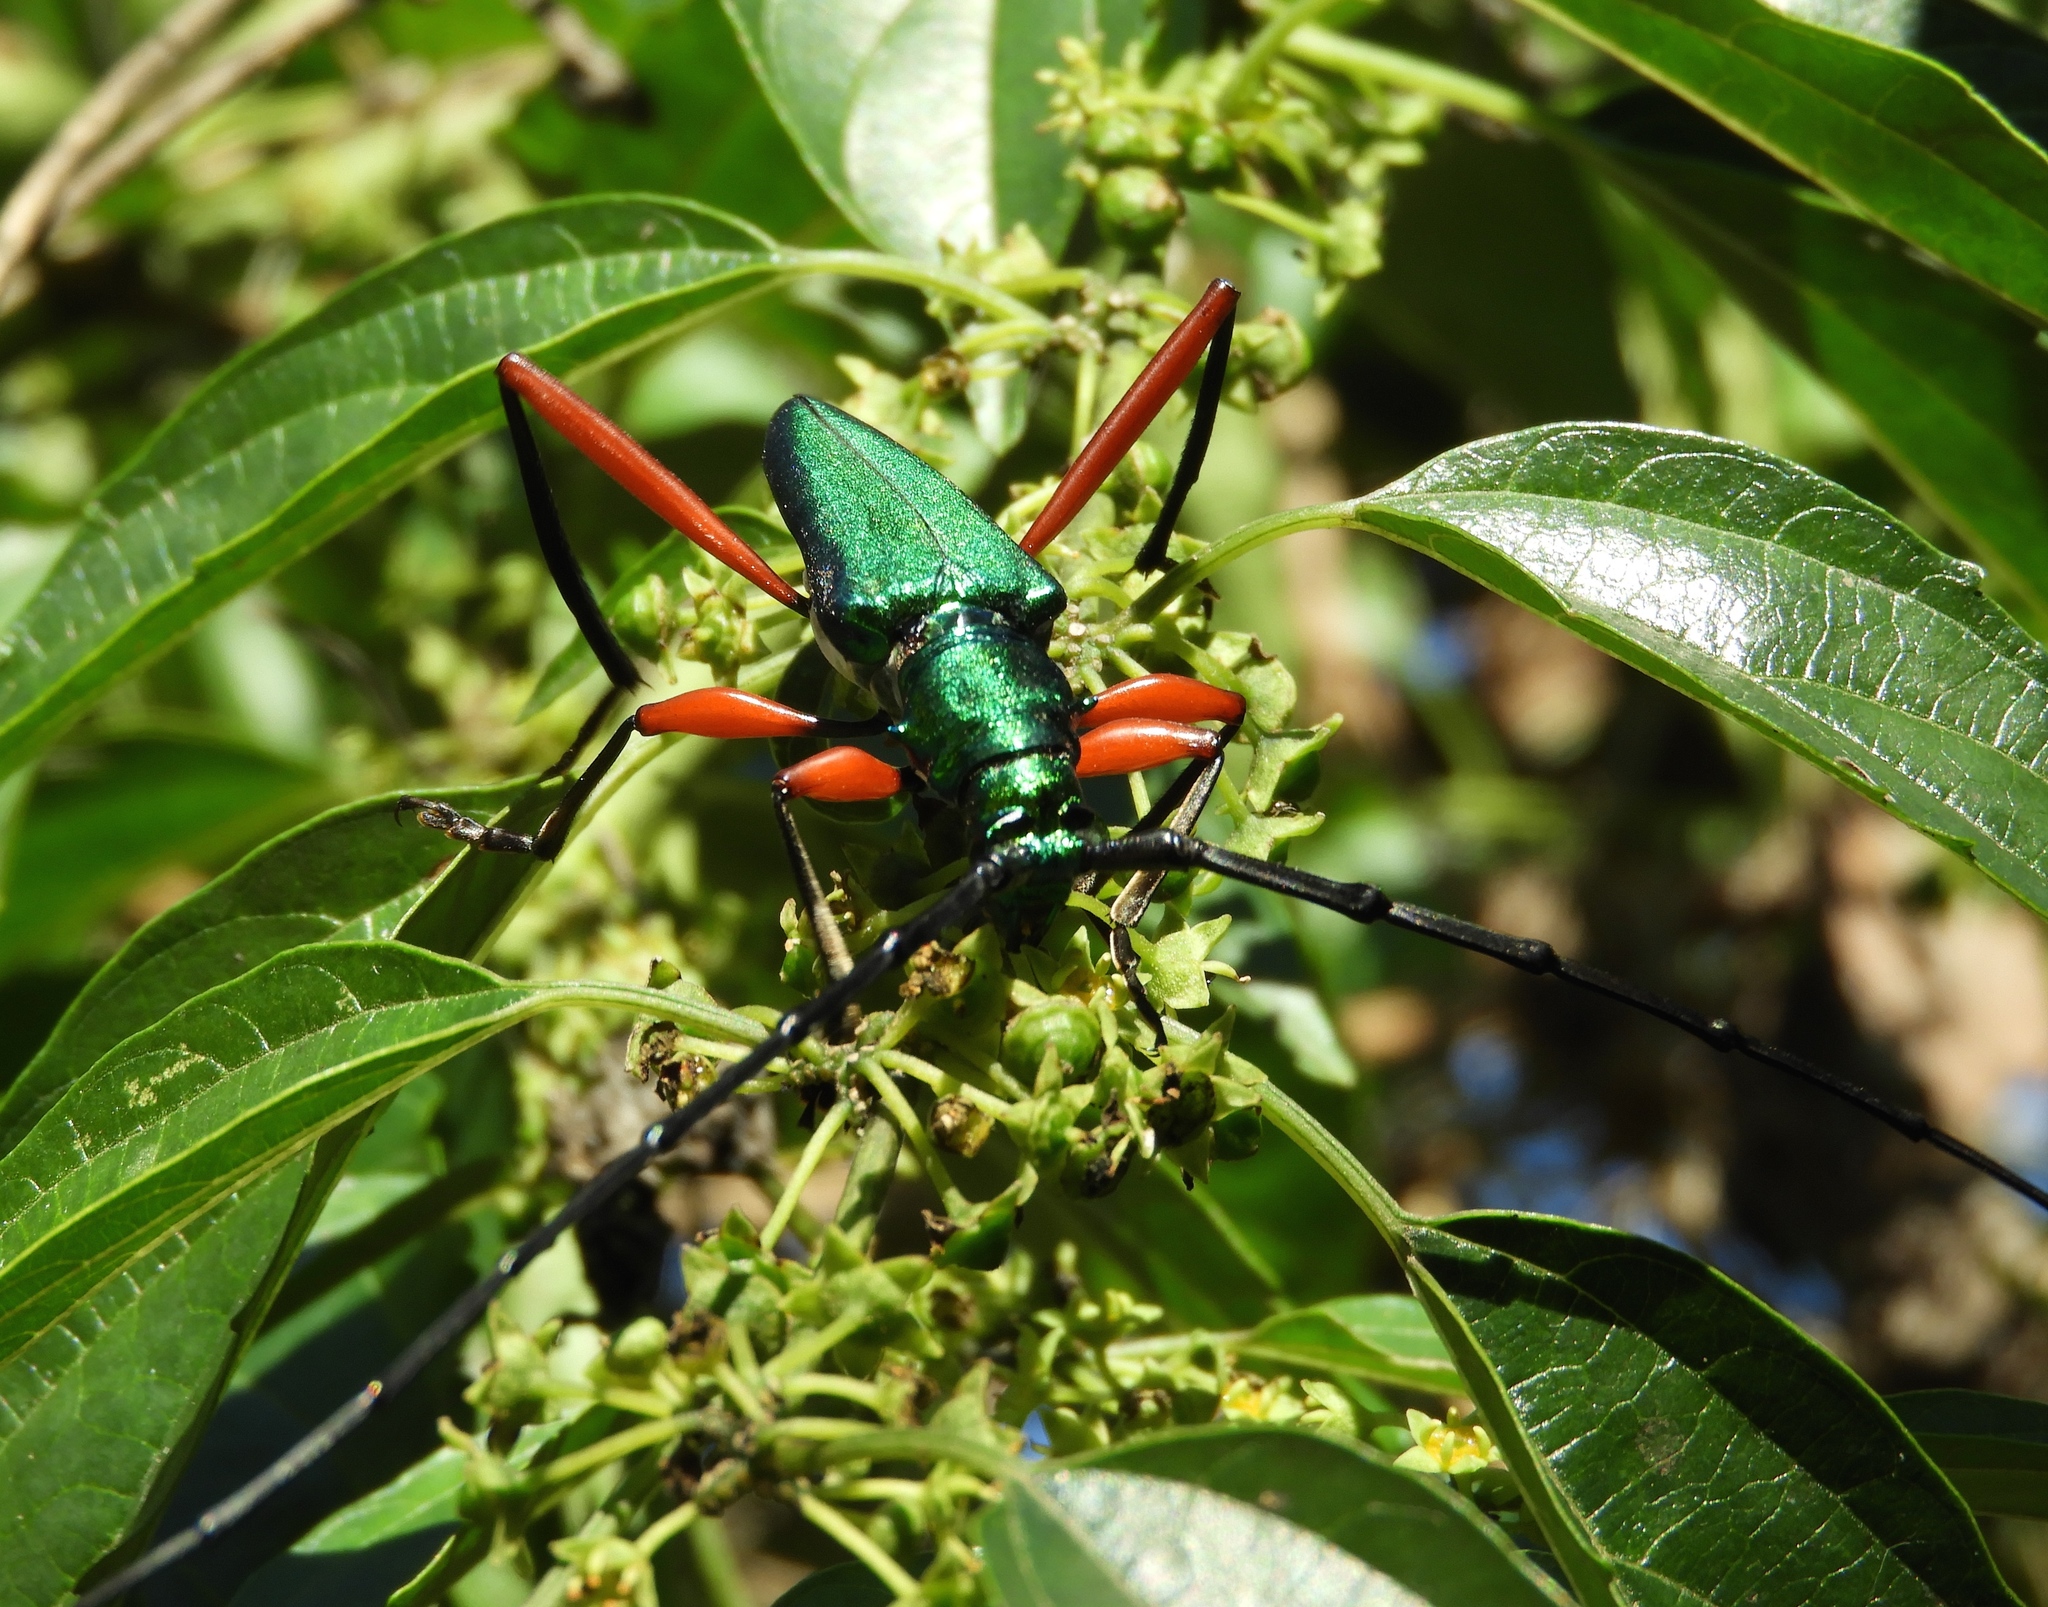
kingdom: Animalia
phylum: Arthropoda
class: Insecta
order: Coleoptera
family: Cerambycidae
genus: Plinthocoelium
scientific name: Plinthocoelium chilensis
